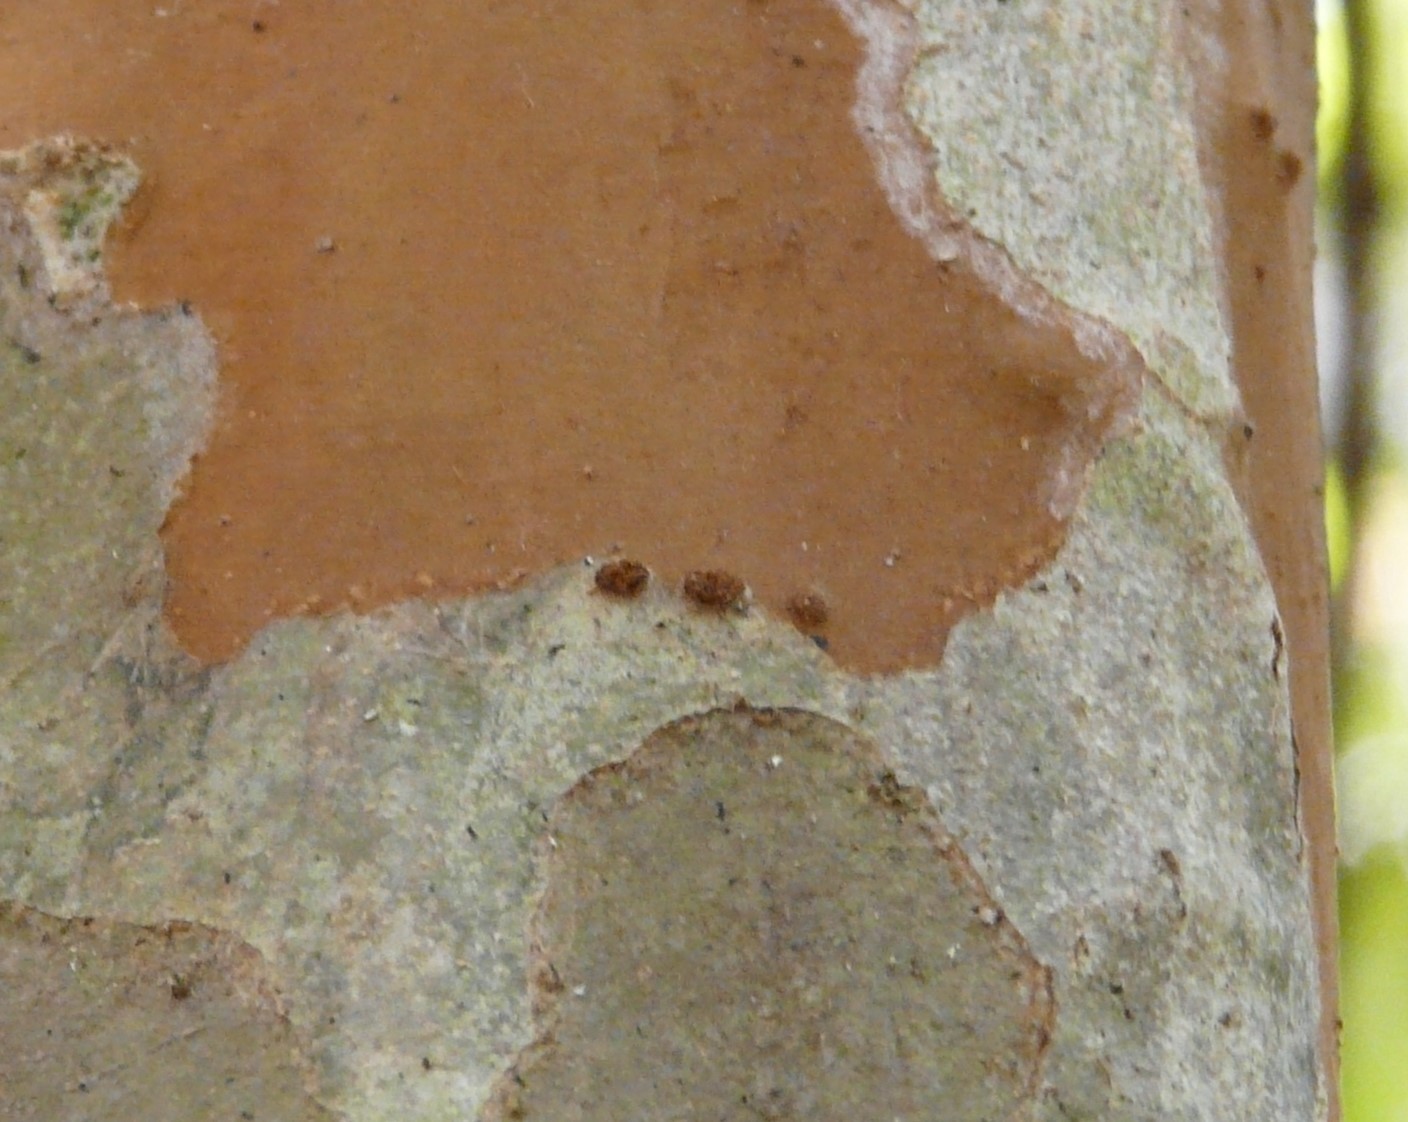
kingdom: Plantae
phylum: Tracheophyta
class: Magnoliopsida
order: Rosales
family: Rosaceae
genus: Crataegus
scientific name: Crataegus spathulata
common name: Littlehip hawthorn
